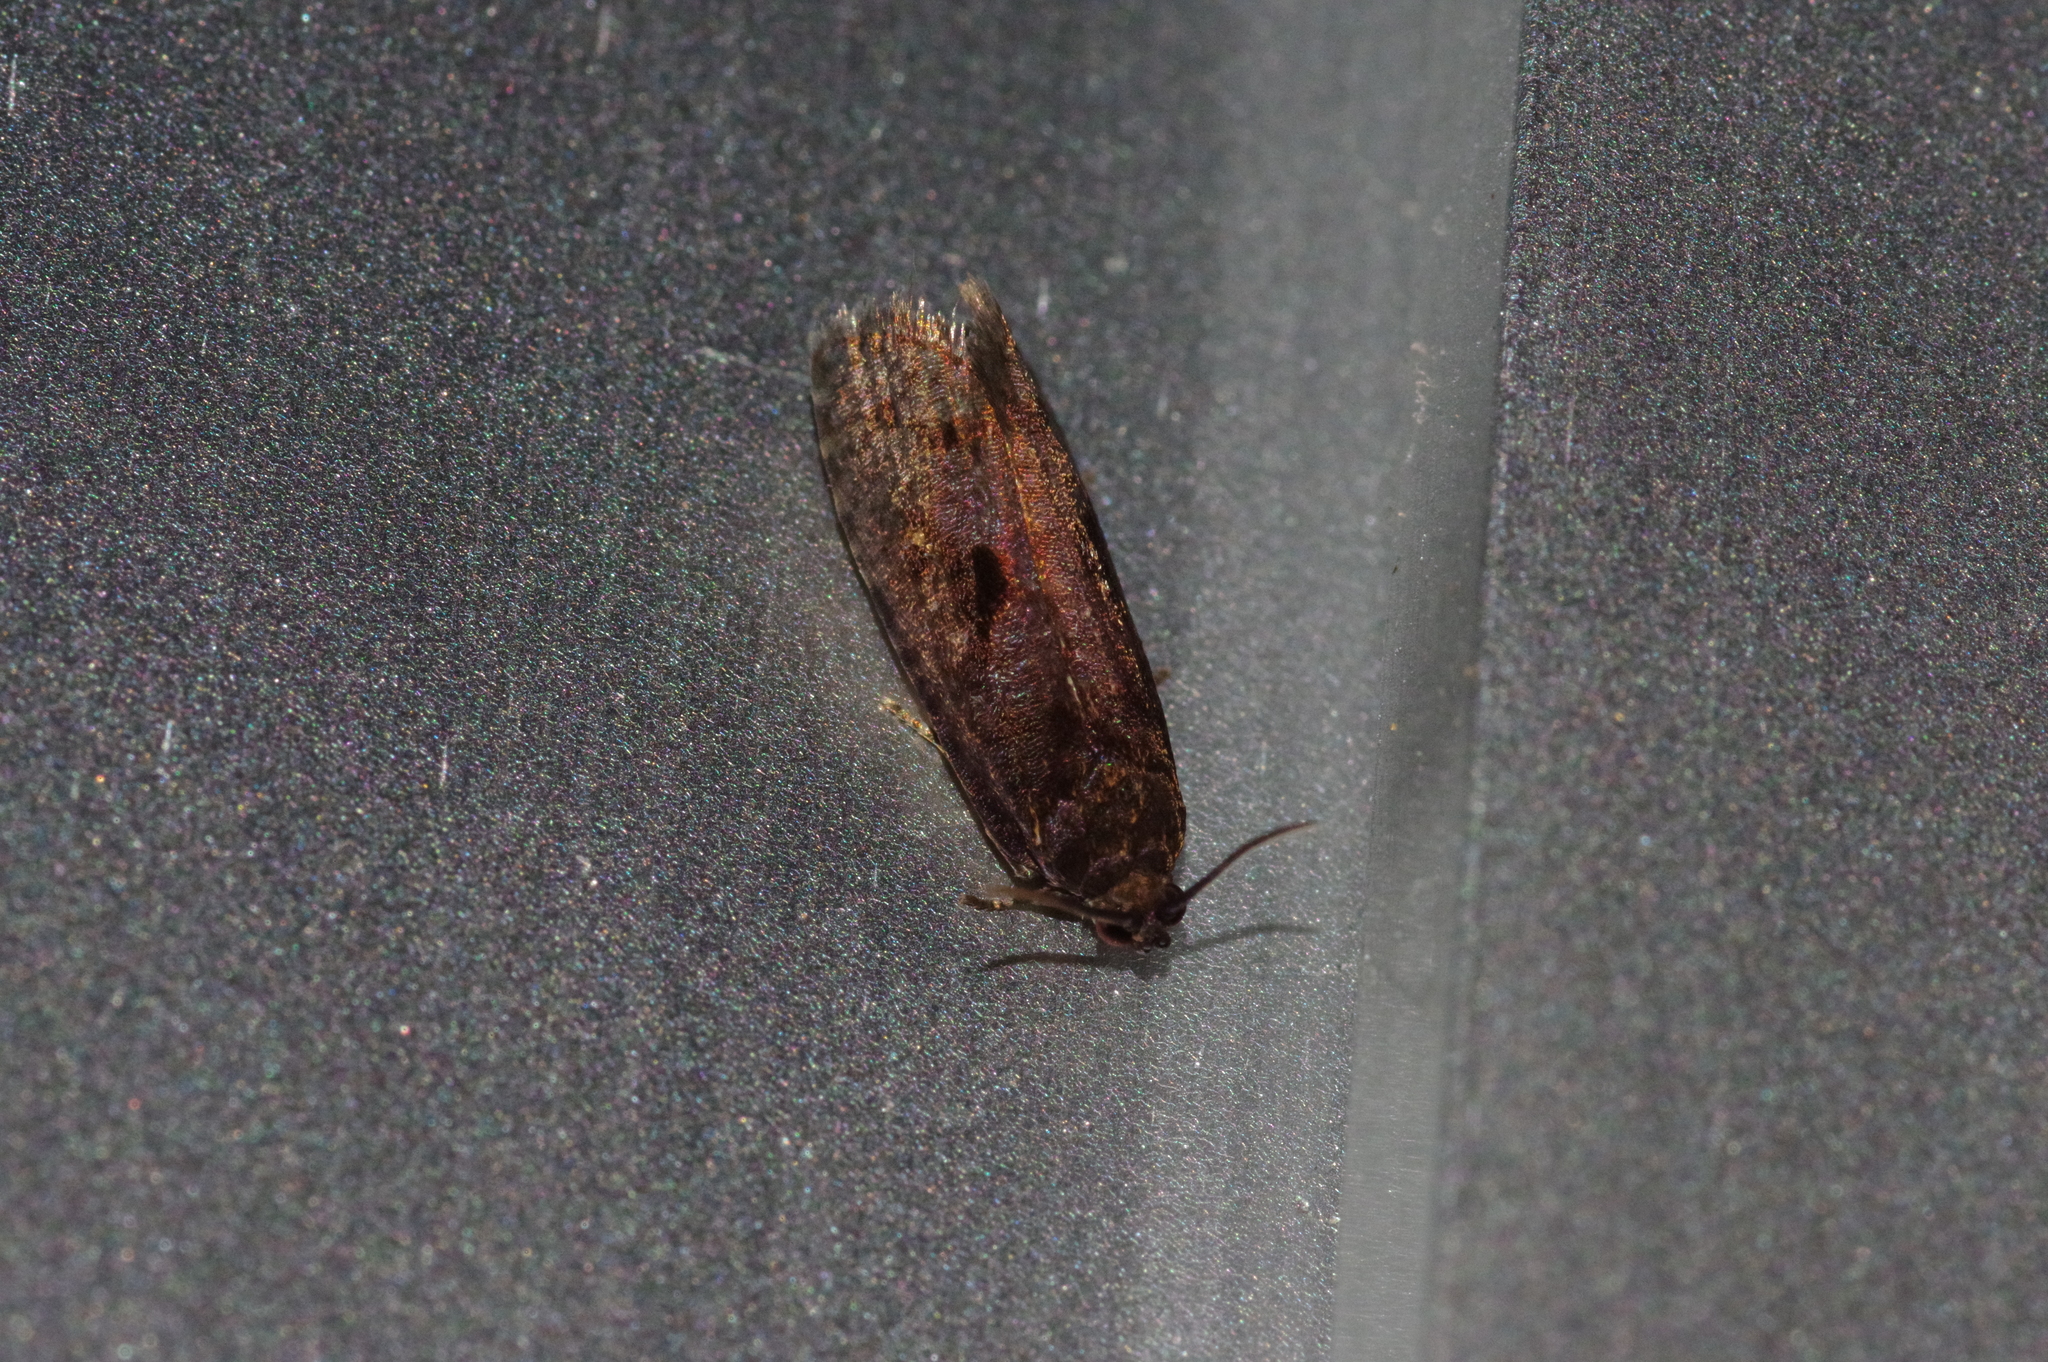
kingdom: Animalia
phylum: Arthropoda
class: Insecta
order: Lepidoptera
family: Tortricidae
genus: Cryptaspasma
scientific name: Cryptaspasma angulicostana
